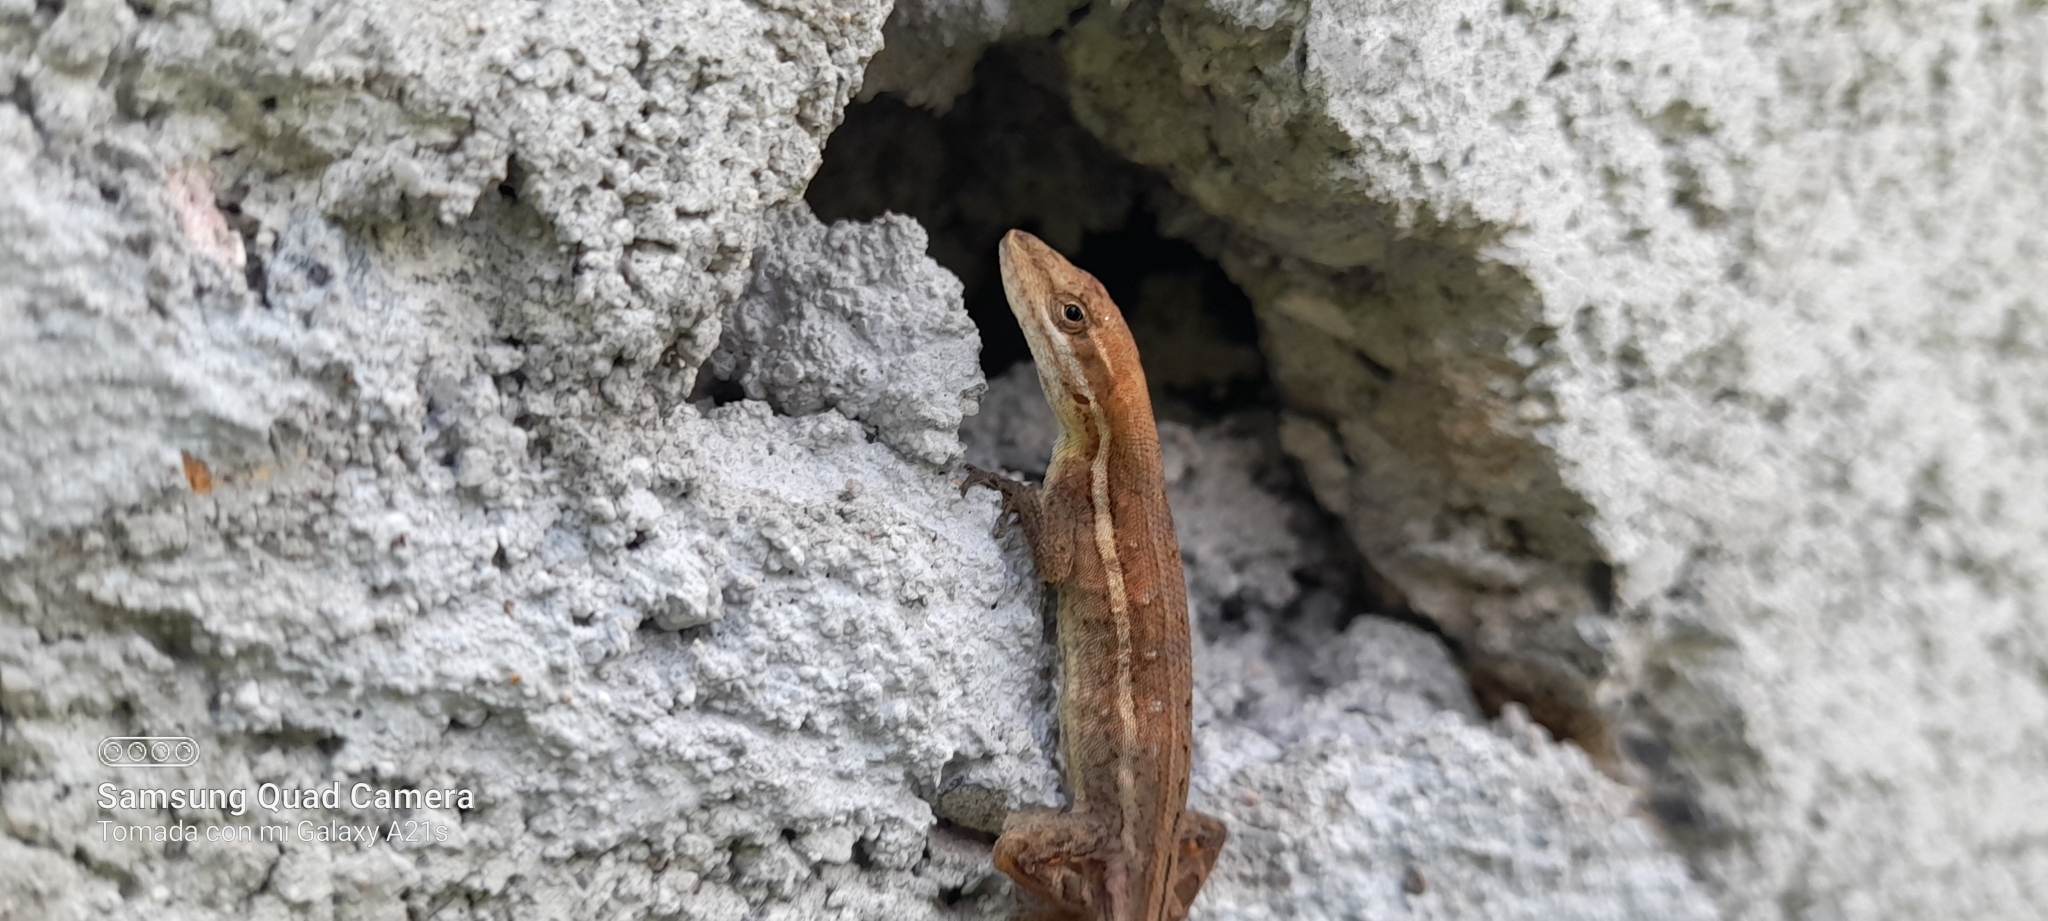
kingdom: Animalia
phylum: Chordata
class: Squamata
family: Dactyloidae
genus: Anolis
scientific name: Anolis auratus
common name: Grass anole
